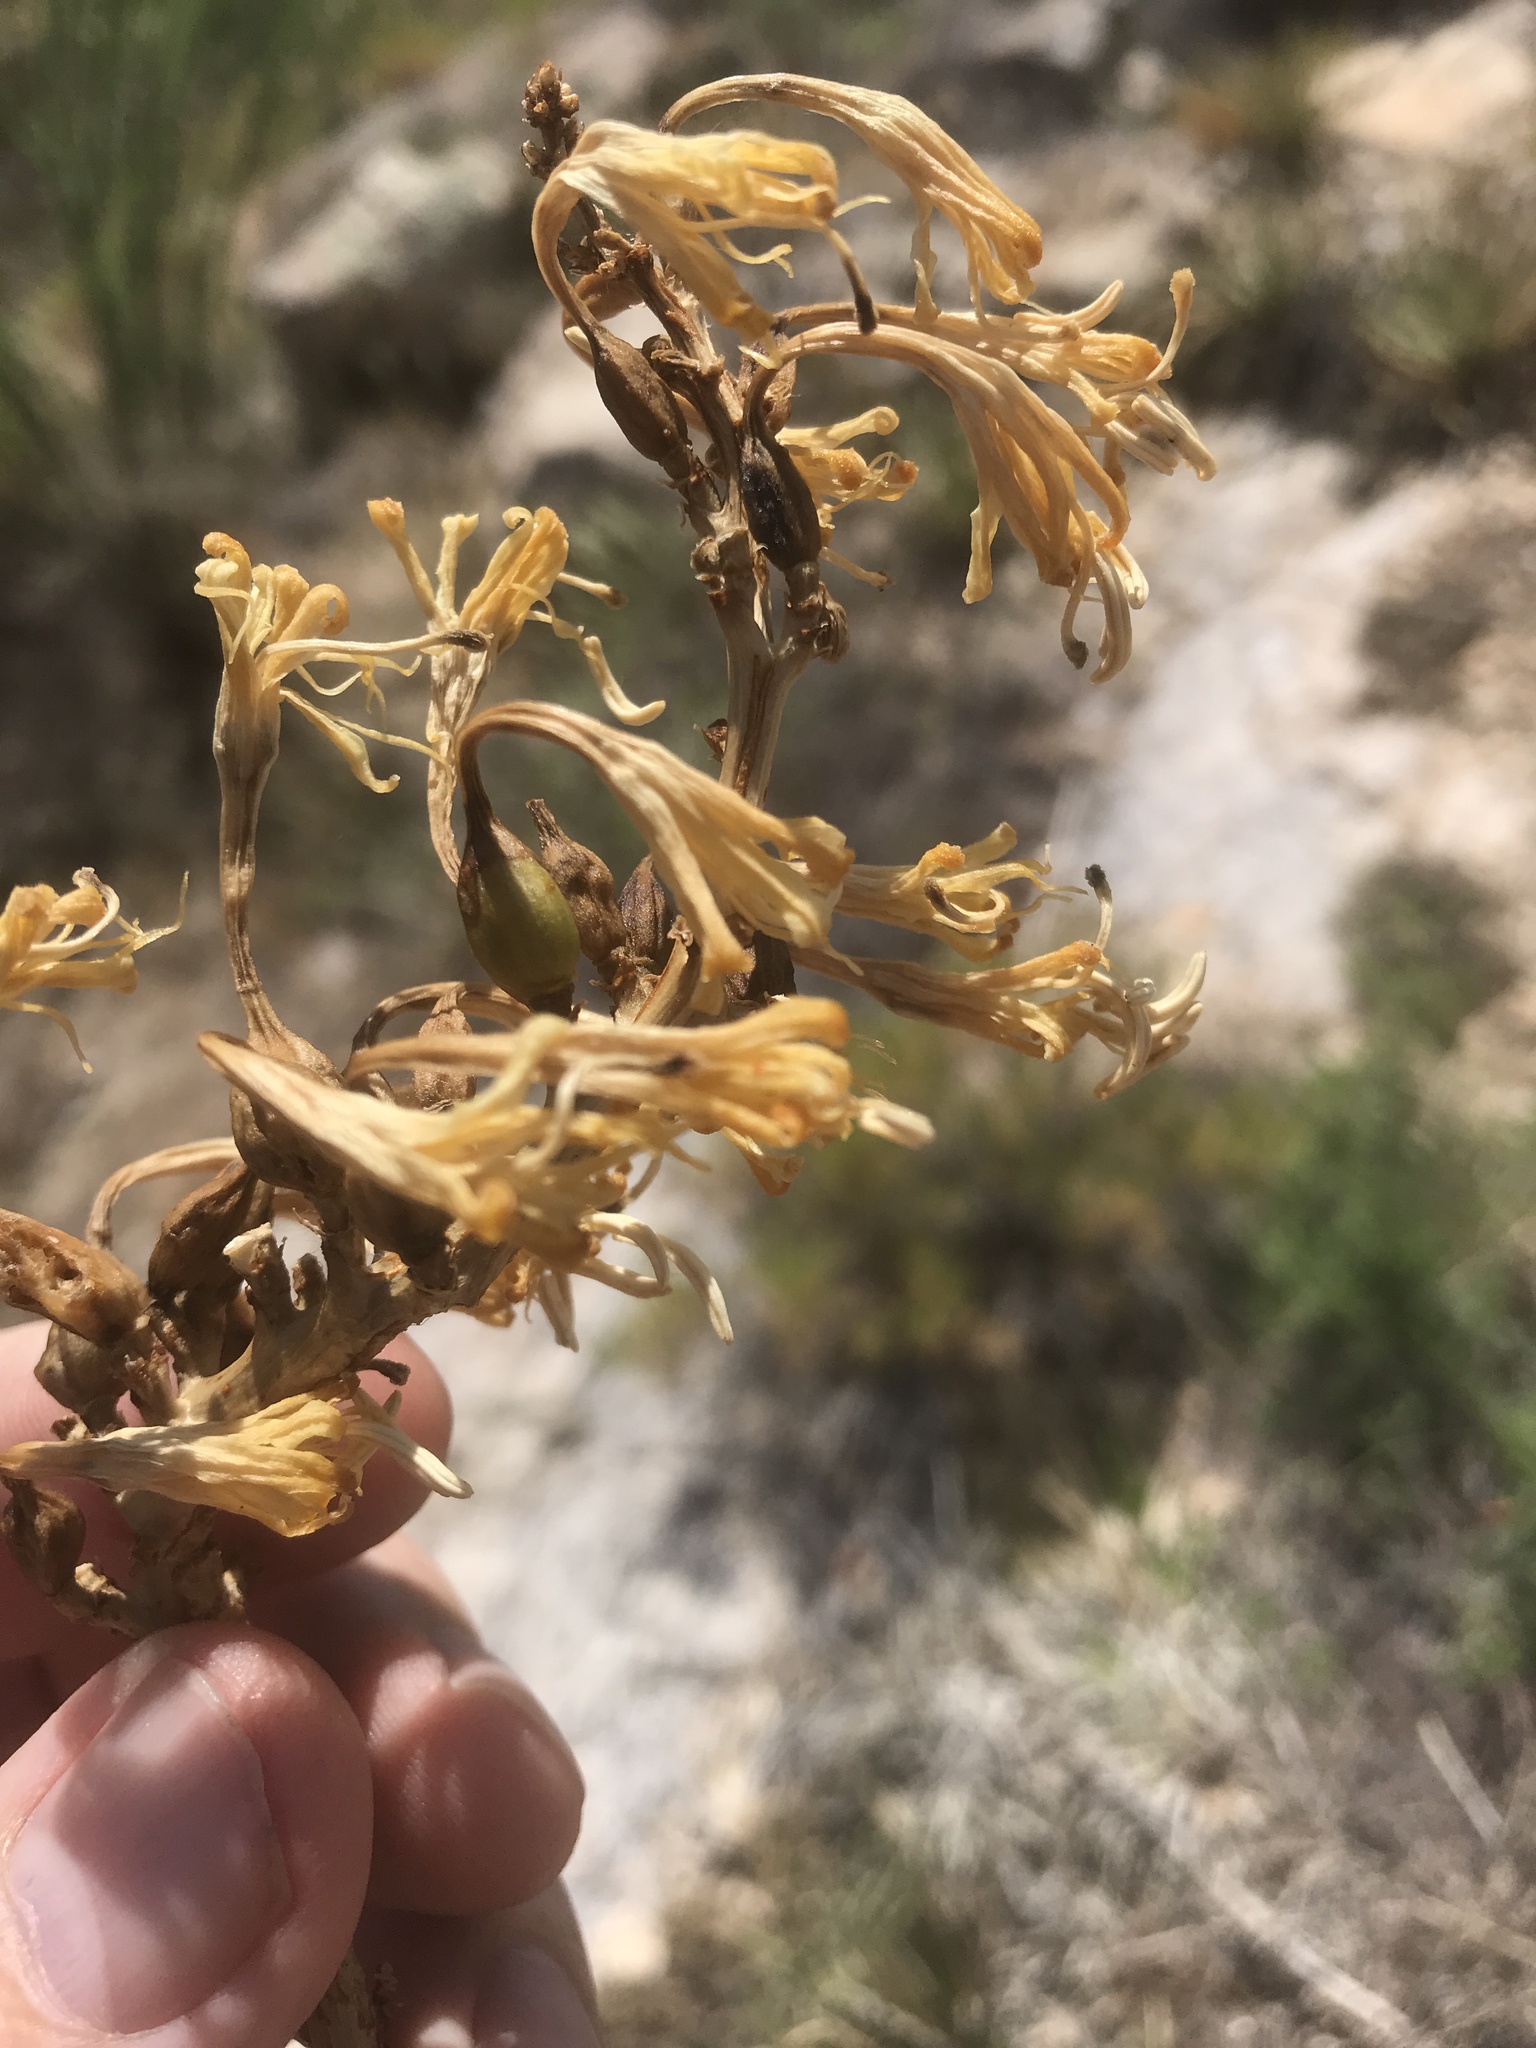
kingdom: Plantae
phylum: Tracheophyta
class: Liliopsida
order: Asparagales
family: Asparagaceae
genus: Agave
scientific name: Agave schottii
